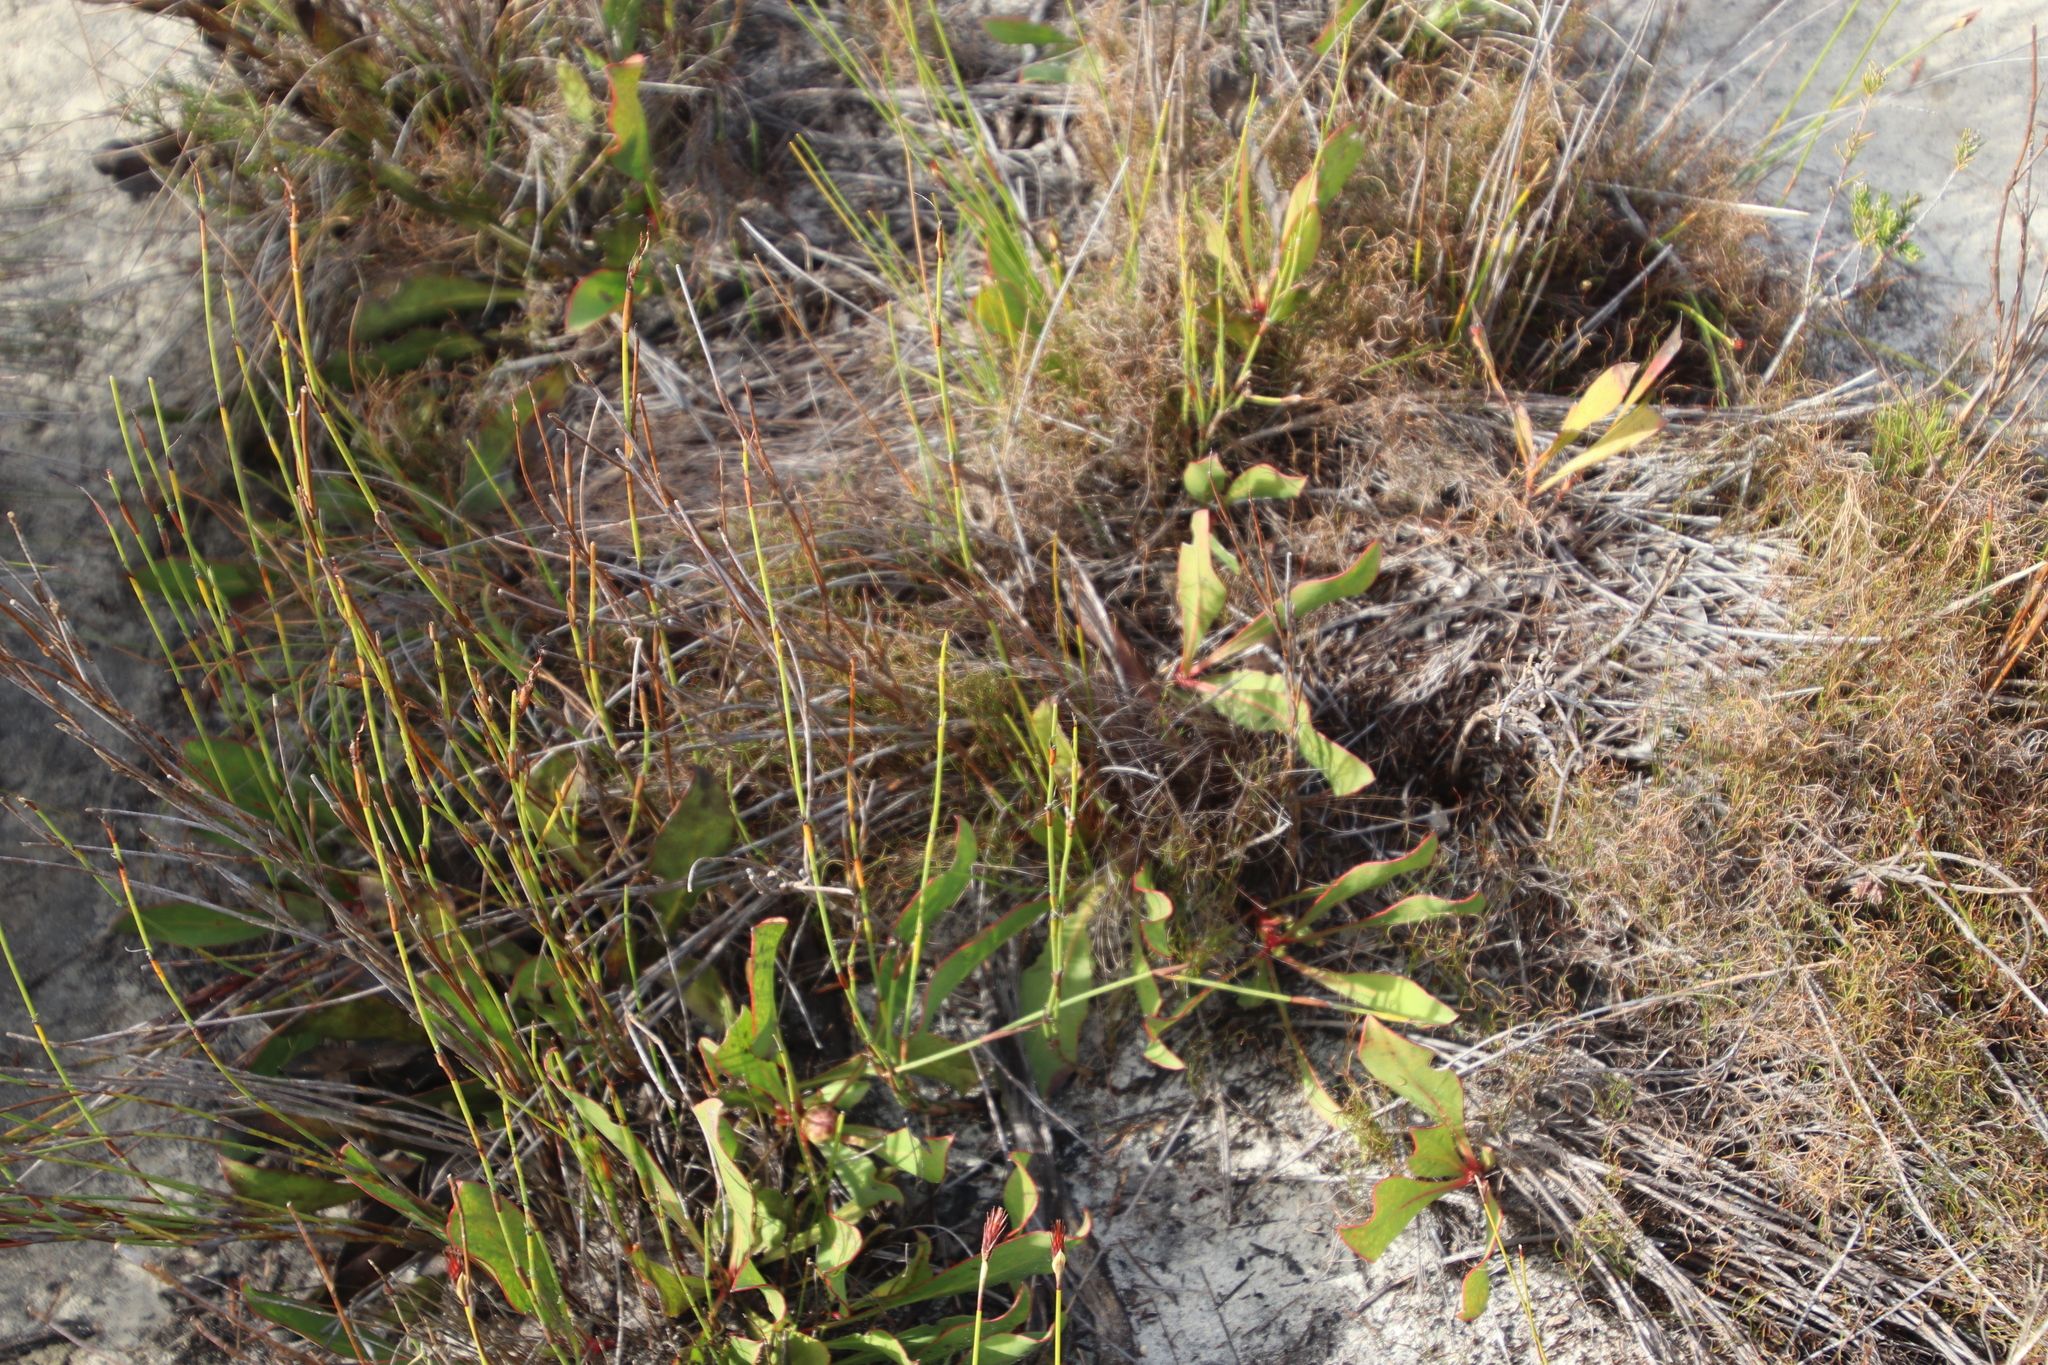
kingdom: Plantae
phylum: Tracheophyta
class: Magnoliopsida
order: Proteales
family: Proteaceae
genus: Protea
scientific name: Protea acaulos
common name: Common ground sugarbush
